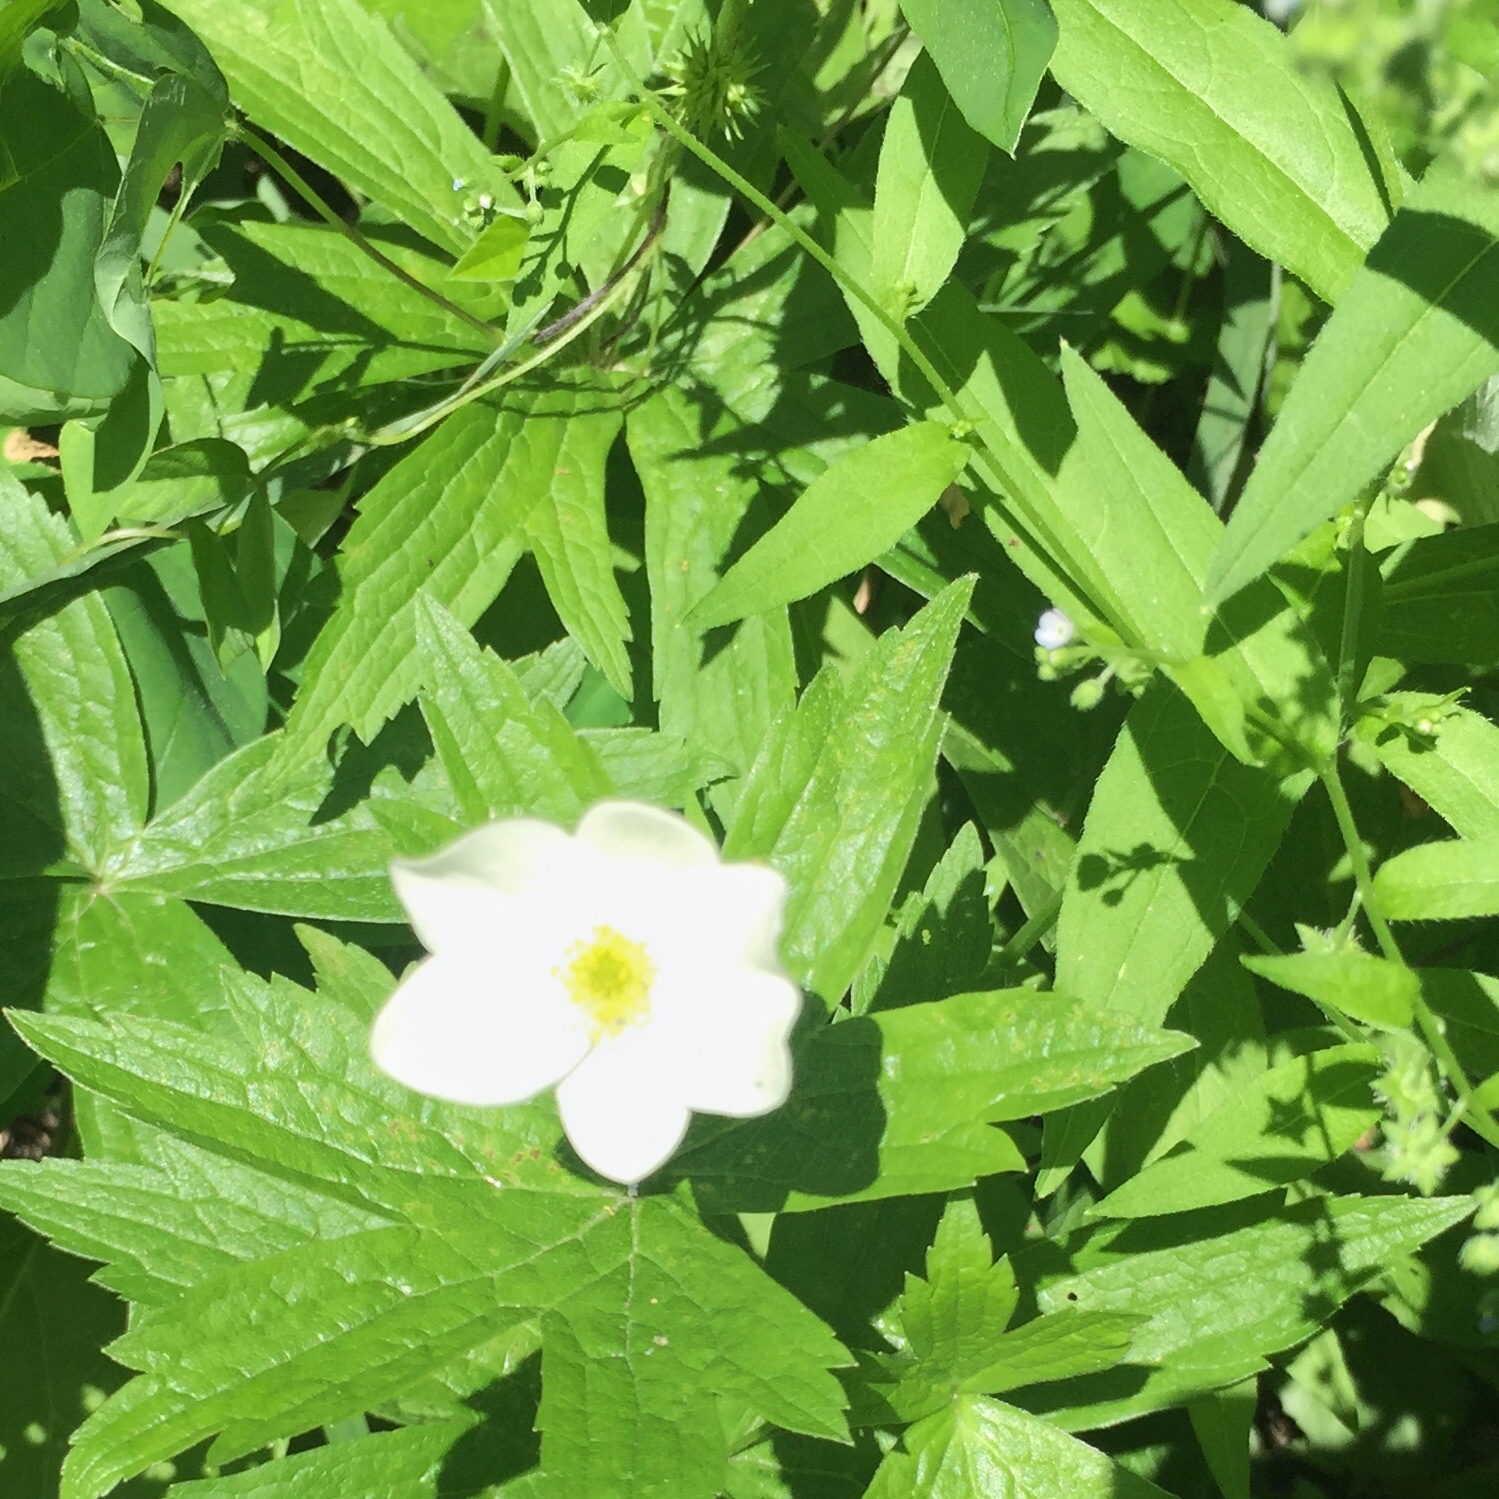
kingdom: Plantae
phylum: Tracheophyta
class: Magnoliopsida
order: Ranunculales
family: Ranunculaceae
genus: Anemonastrum
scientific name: Anemonastrum canadense
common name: Canada anemone
